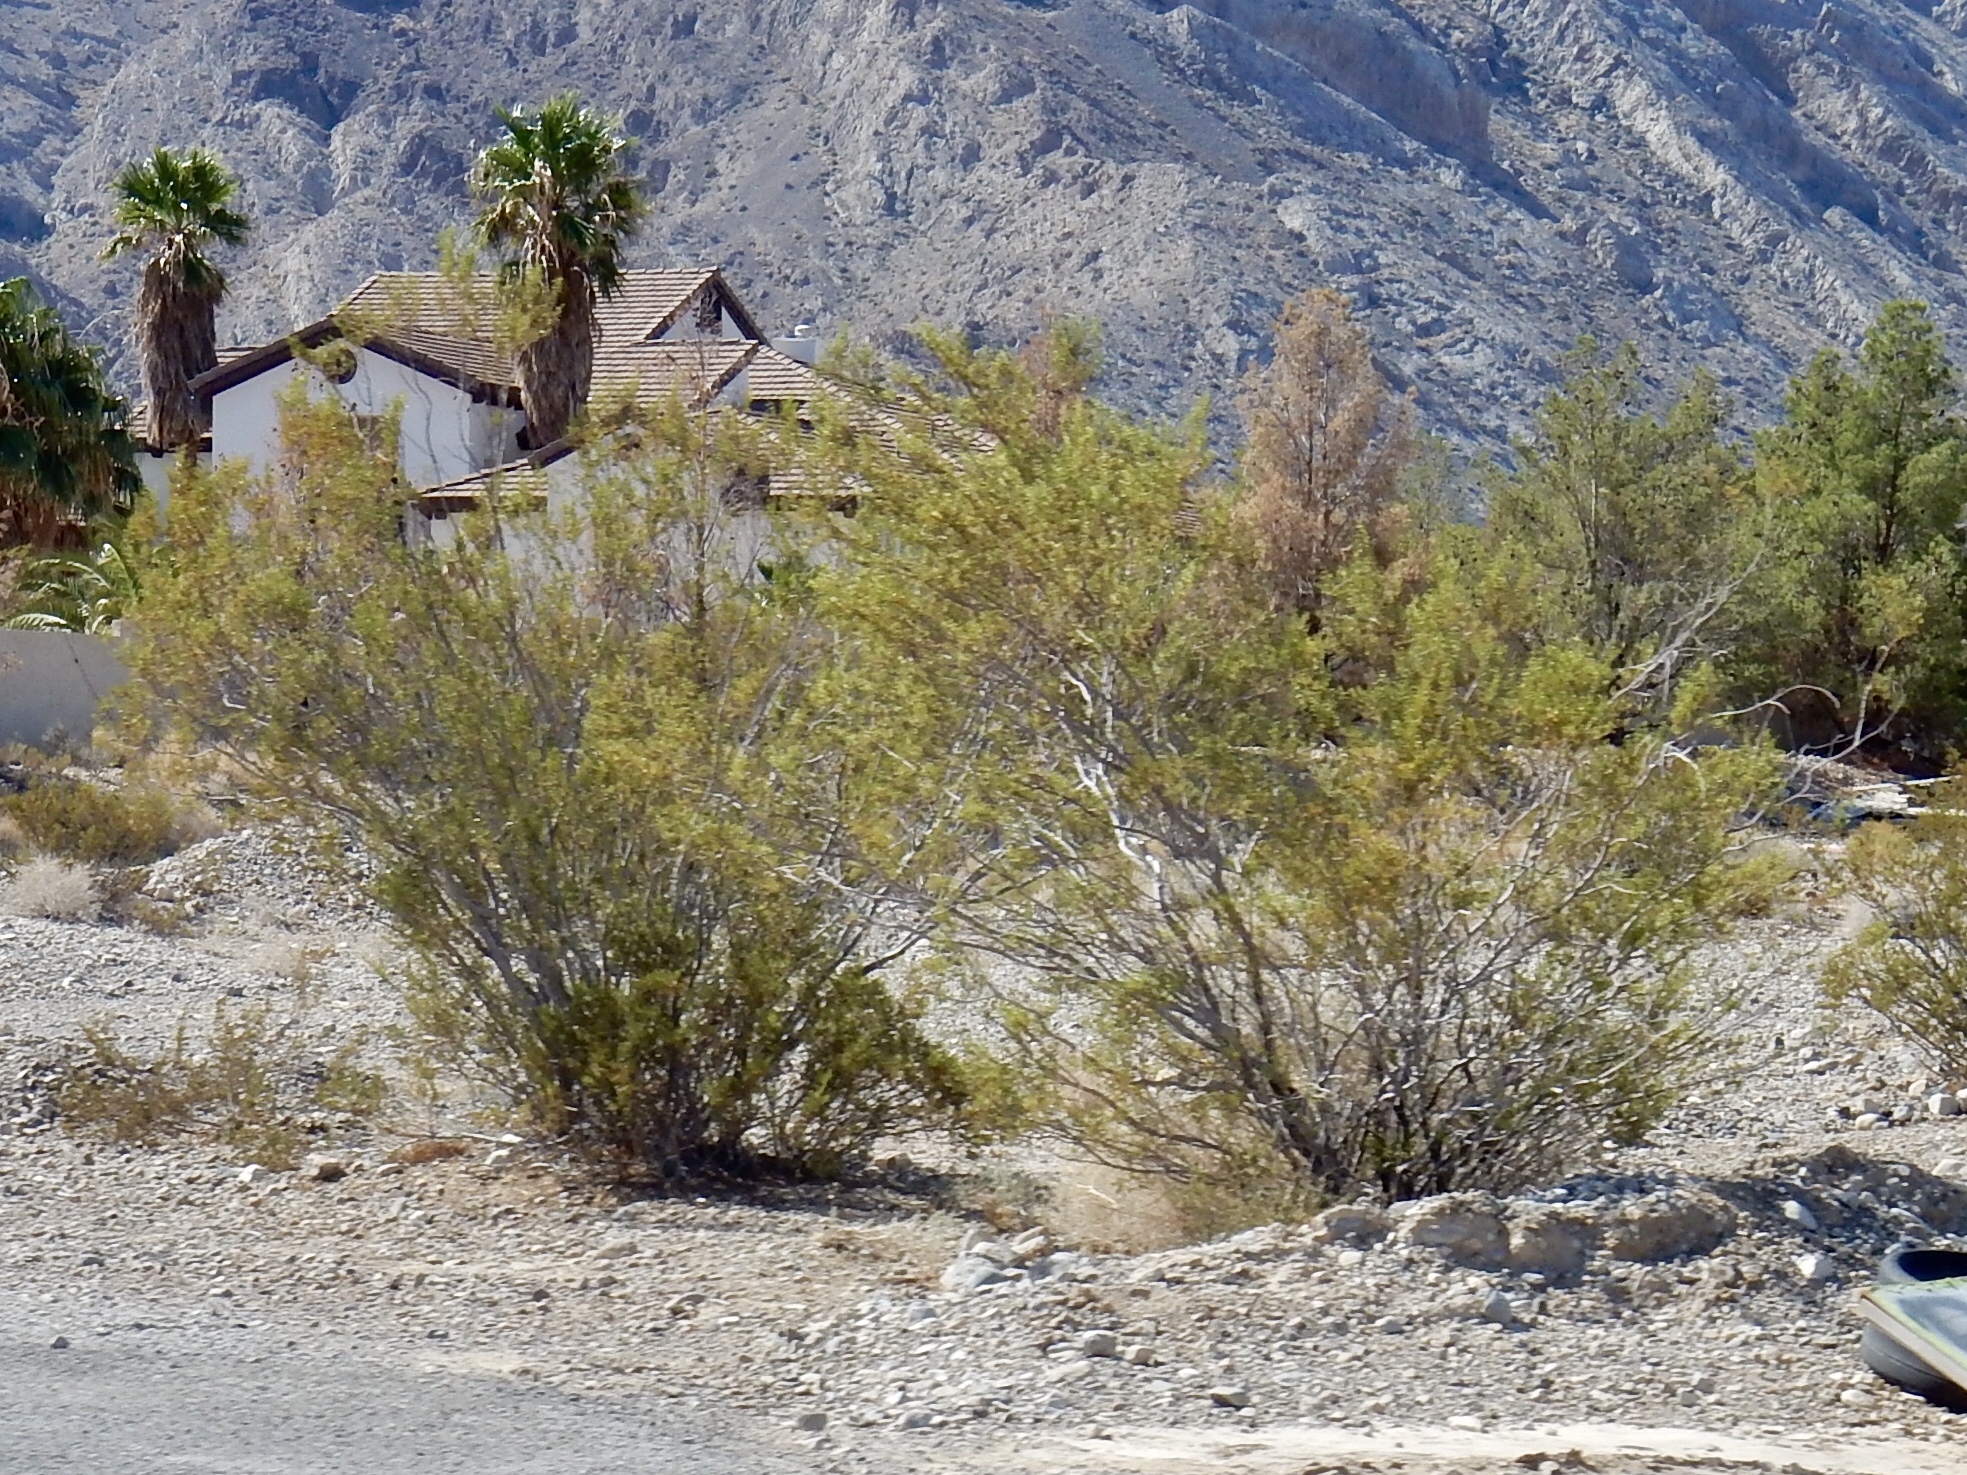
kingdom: Plantae
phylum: Tracheophyta
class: Magnoliopsida
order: Zygophyllales
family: Zygophyllaceae
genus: Larrea
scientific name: Larrea tridentata
